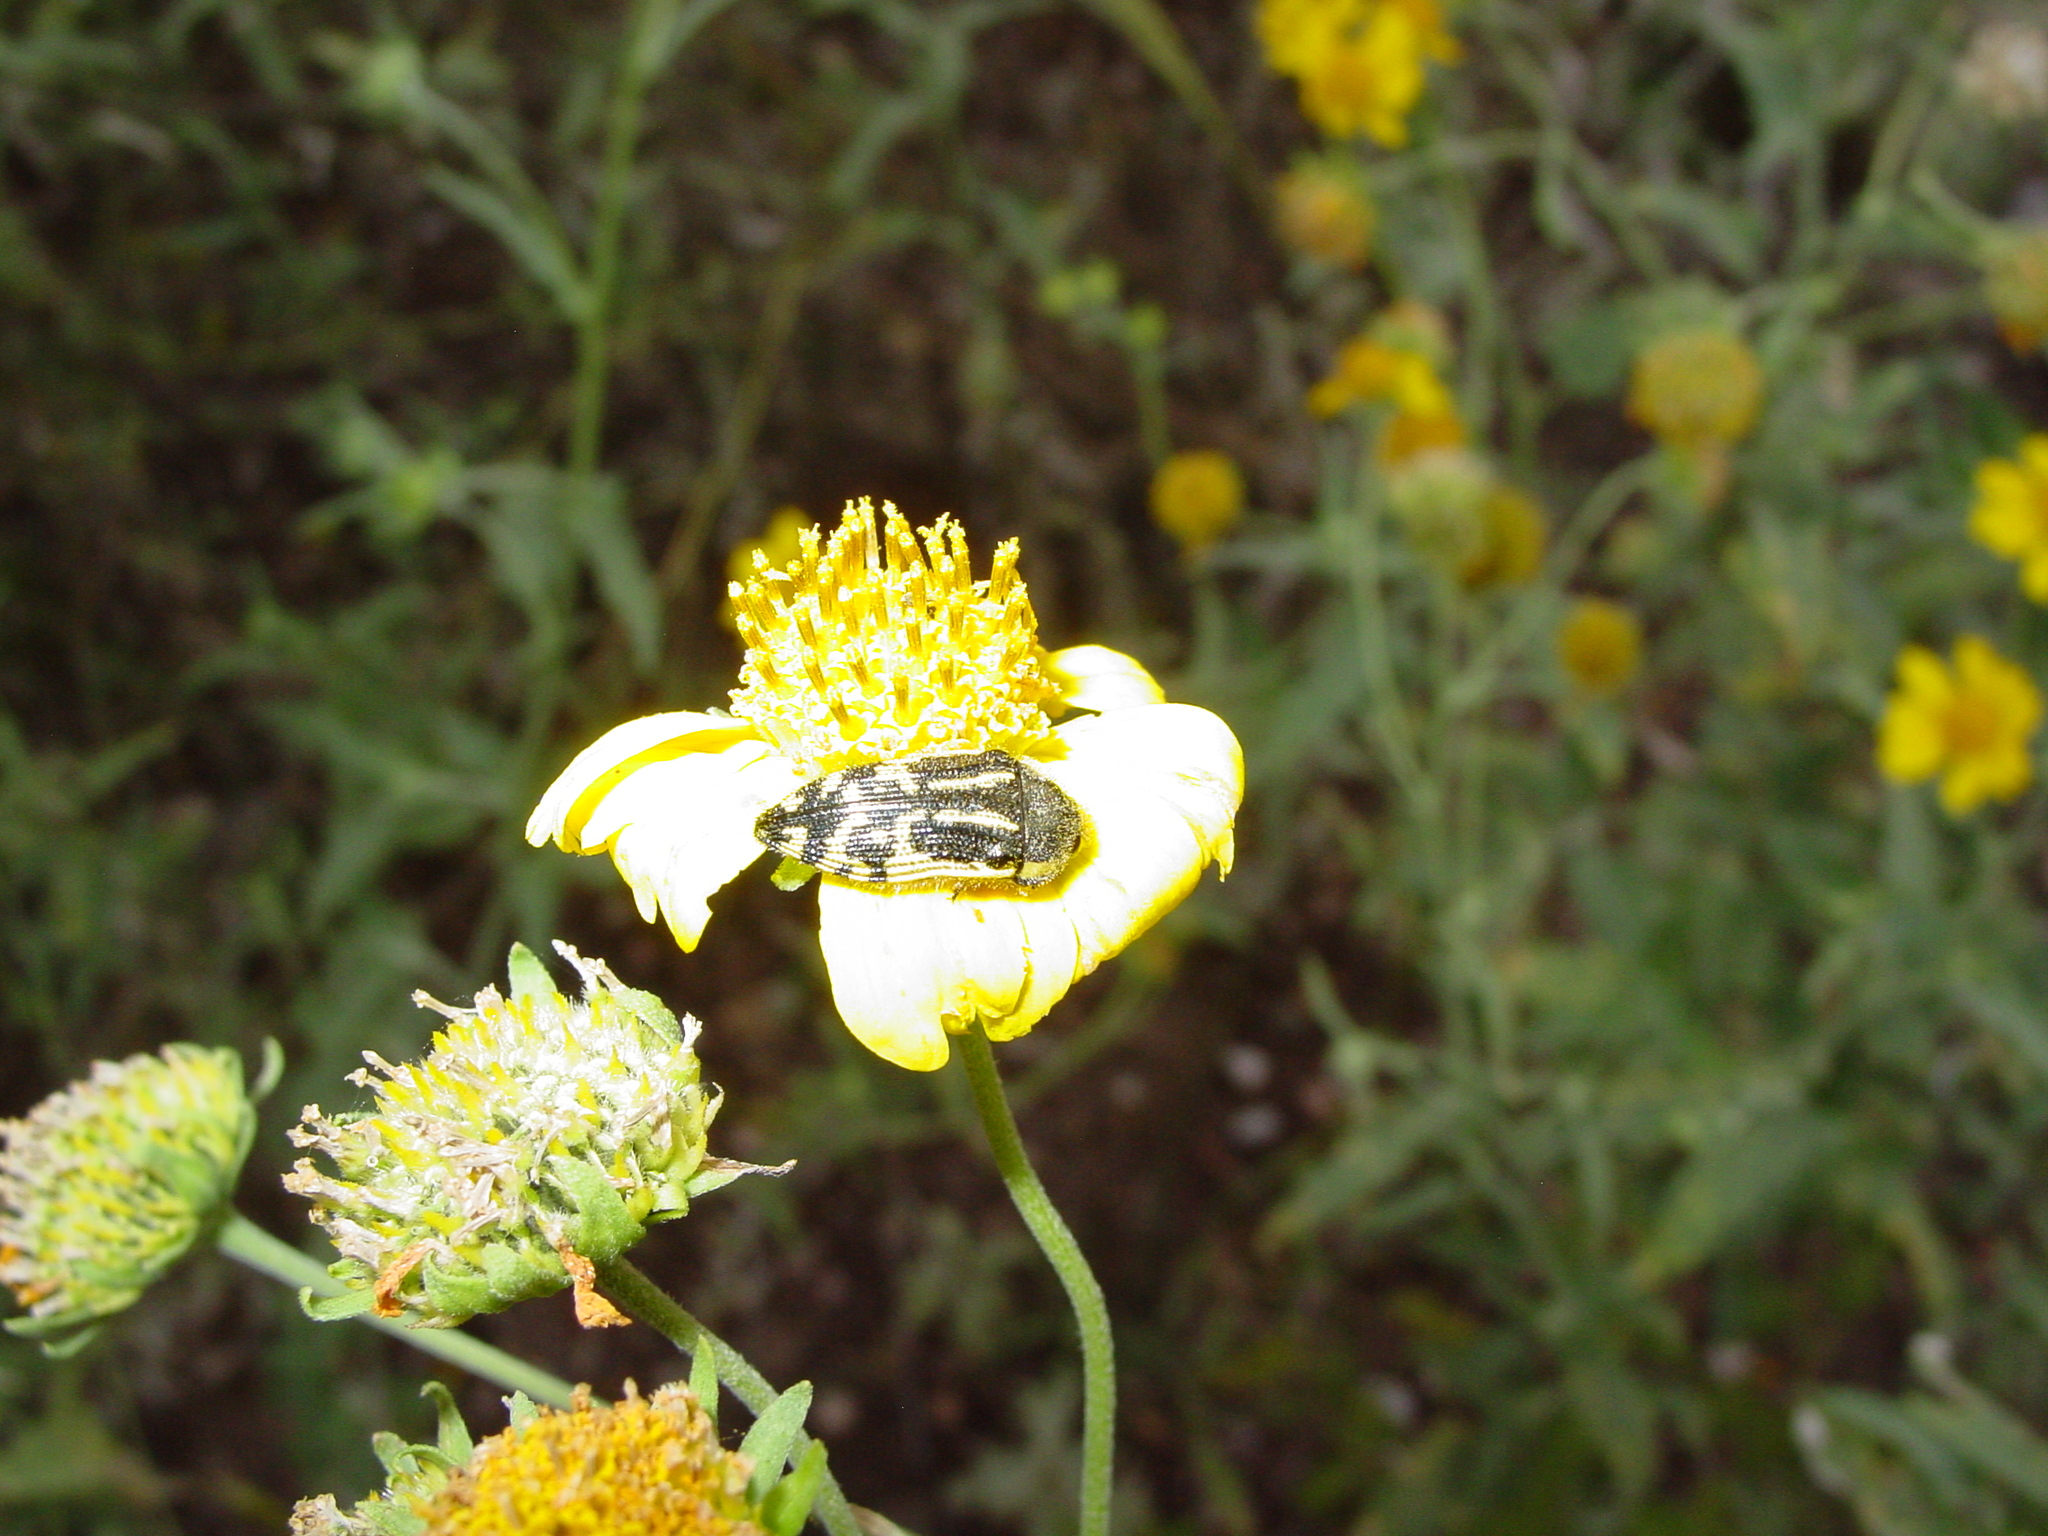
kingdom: Animalia
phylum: Arthropoda
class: Insecta
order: Coleoptera
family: Buprestidae
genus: Acmaeodera
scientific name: Acmaeodera amplicollis
